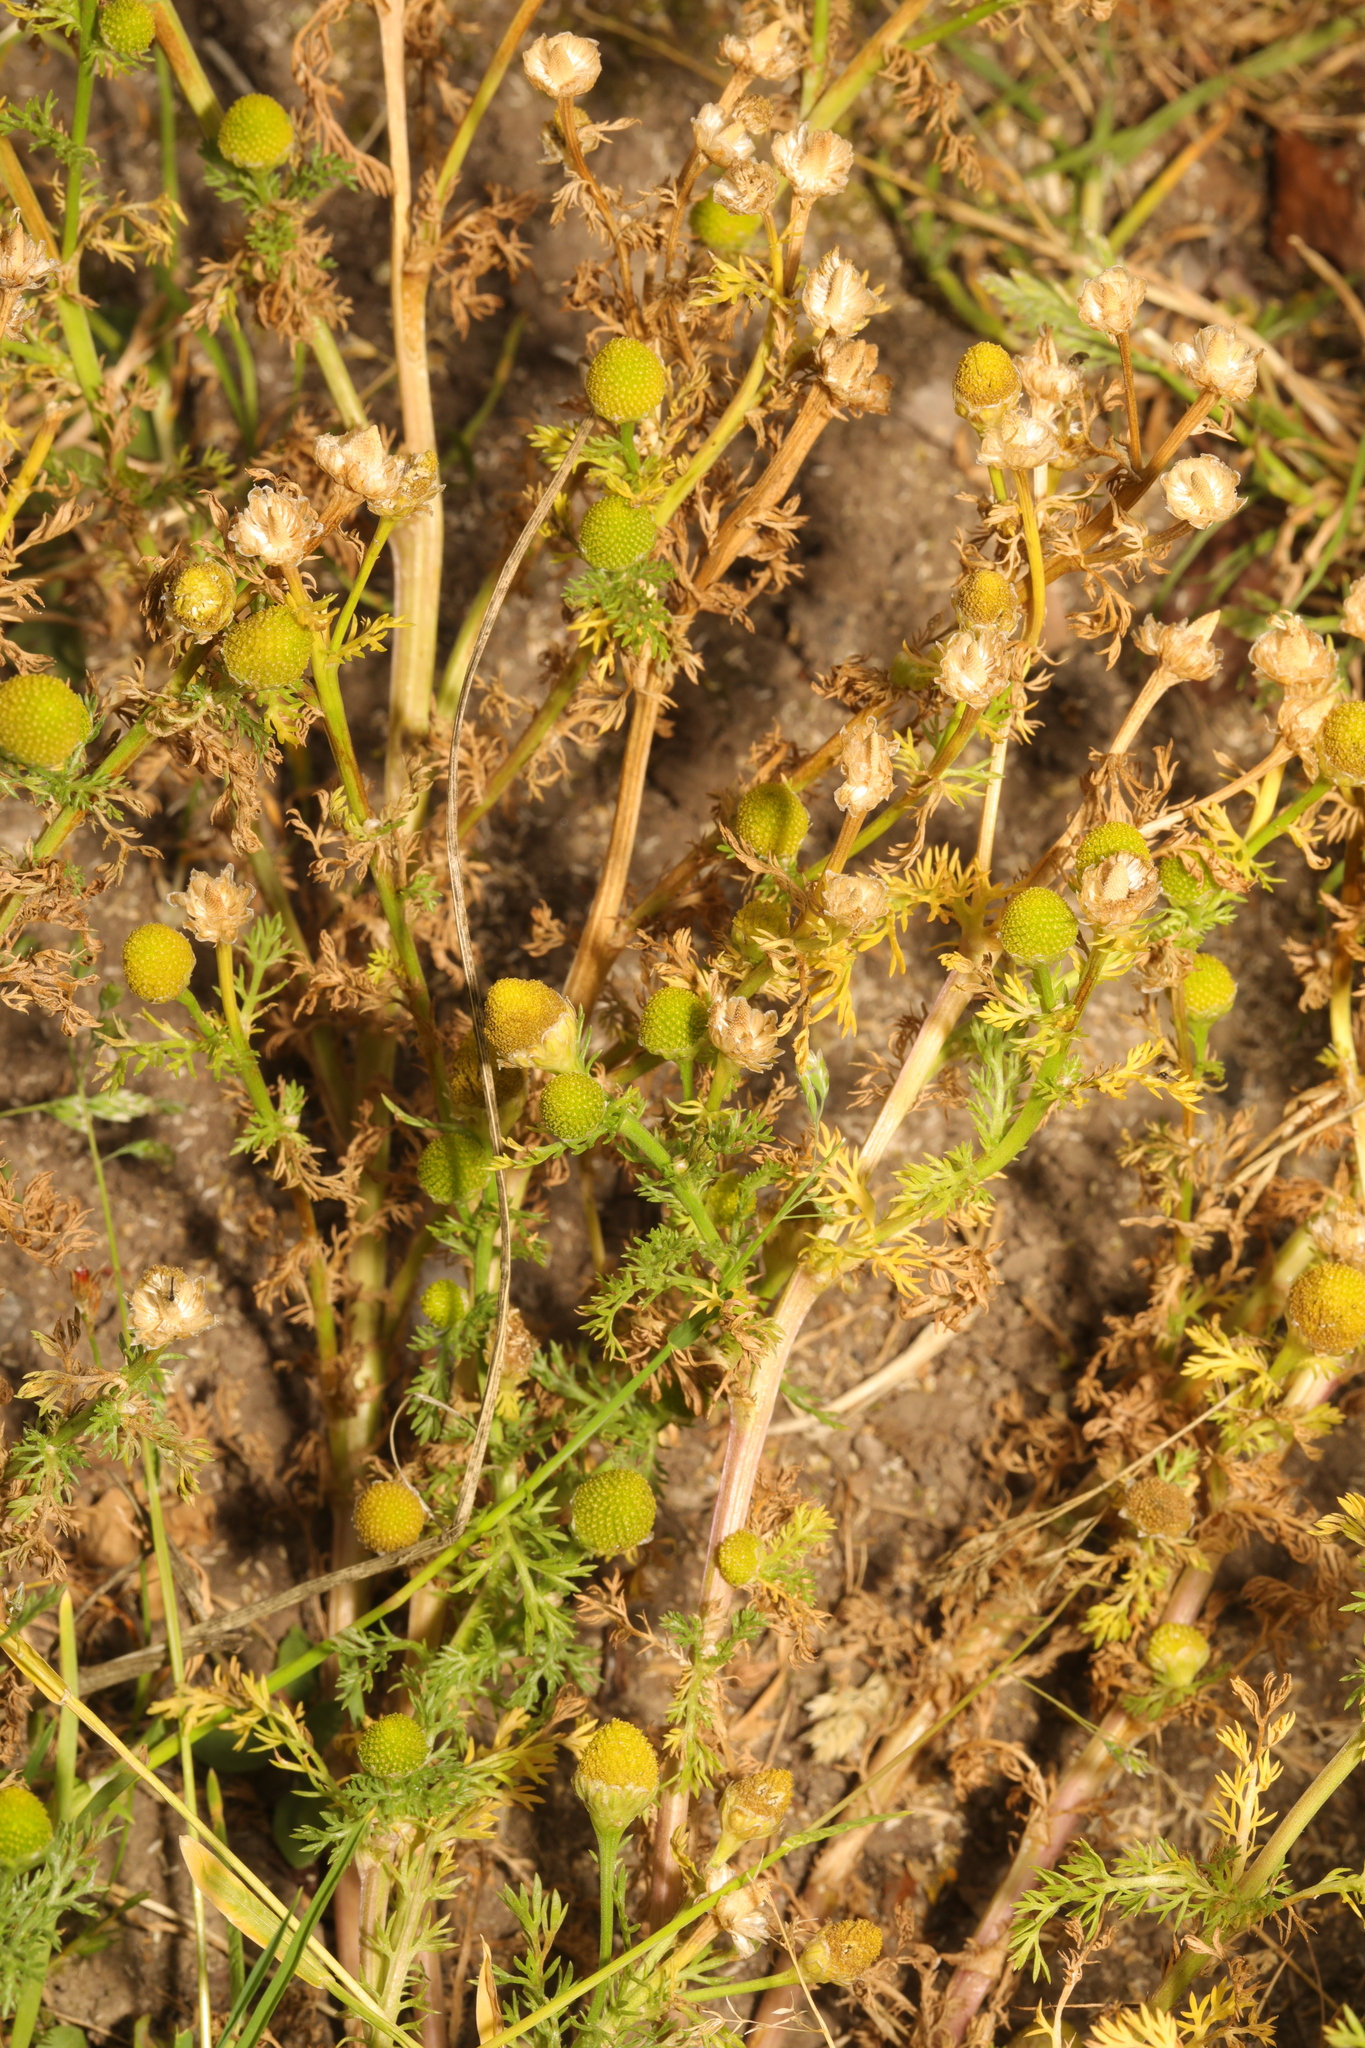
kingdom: Plantae
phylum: Tracheophyta
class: Magnoliopsida
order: Asterales
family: Asteraceae
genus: Matricaria
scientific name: Matricaria discoidea
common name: Disc mayweed
